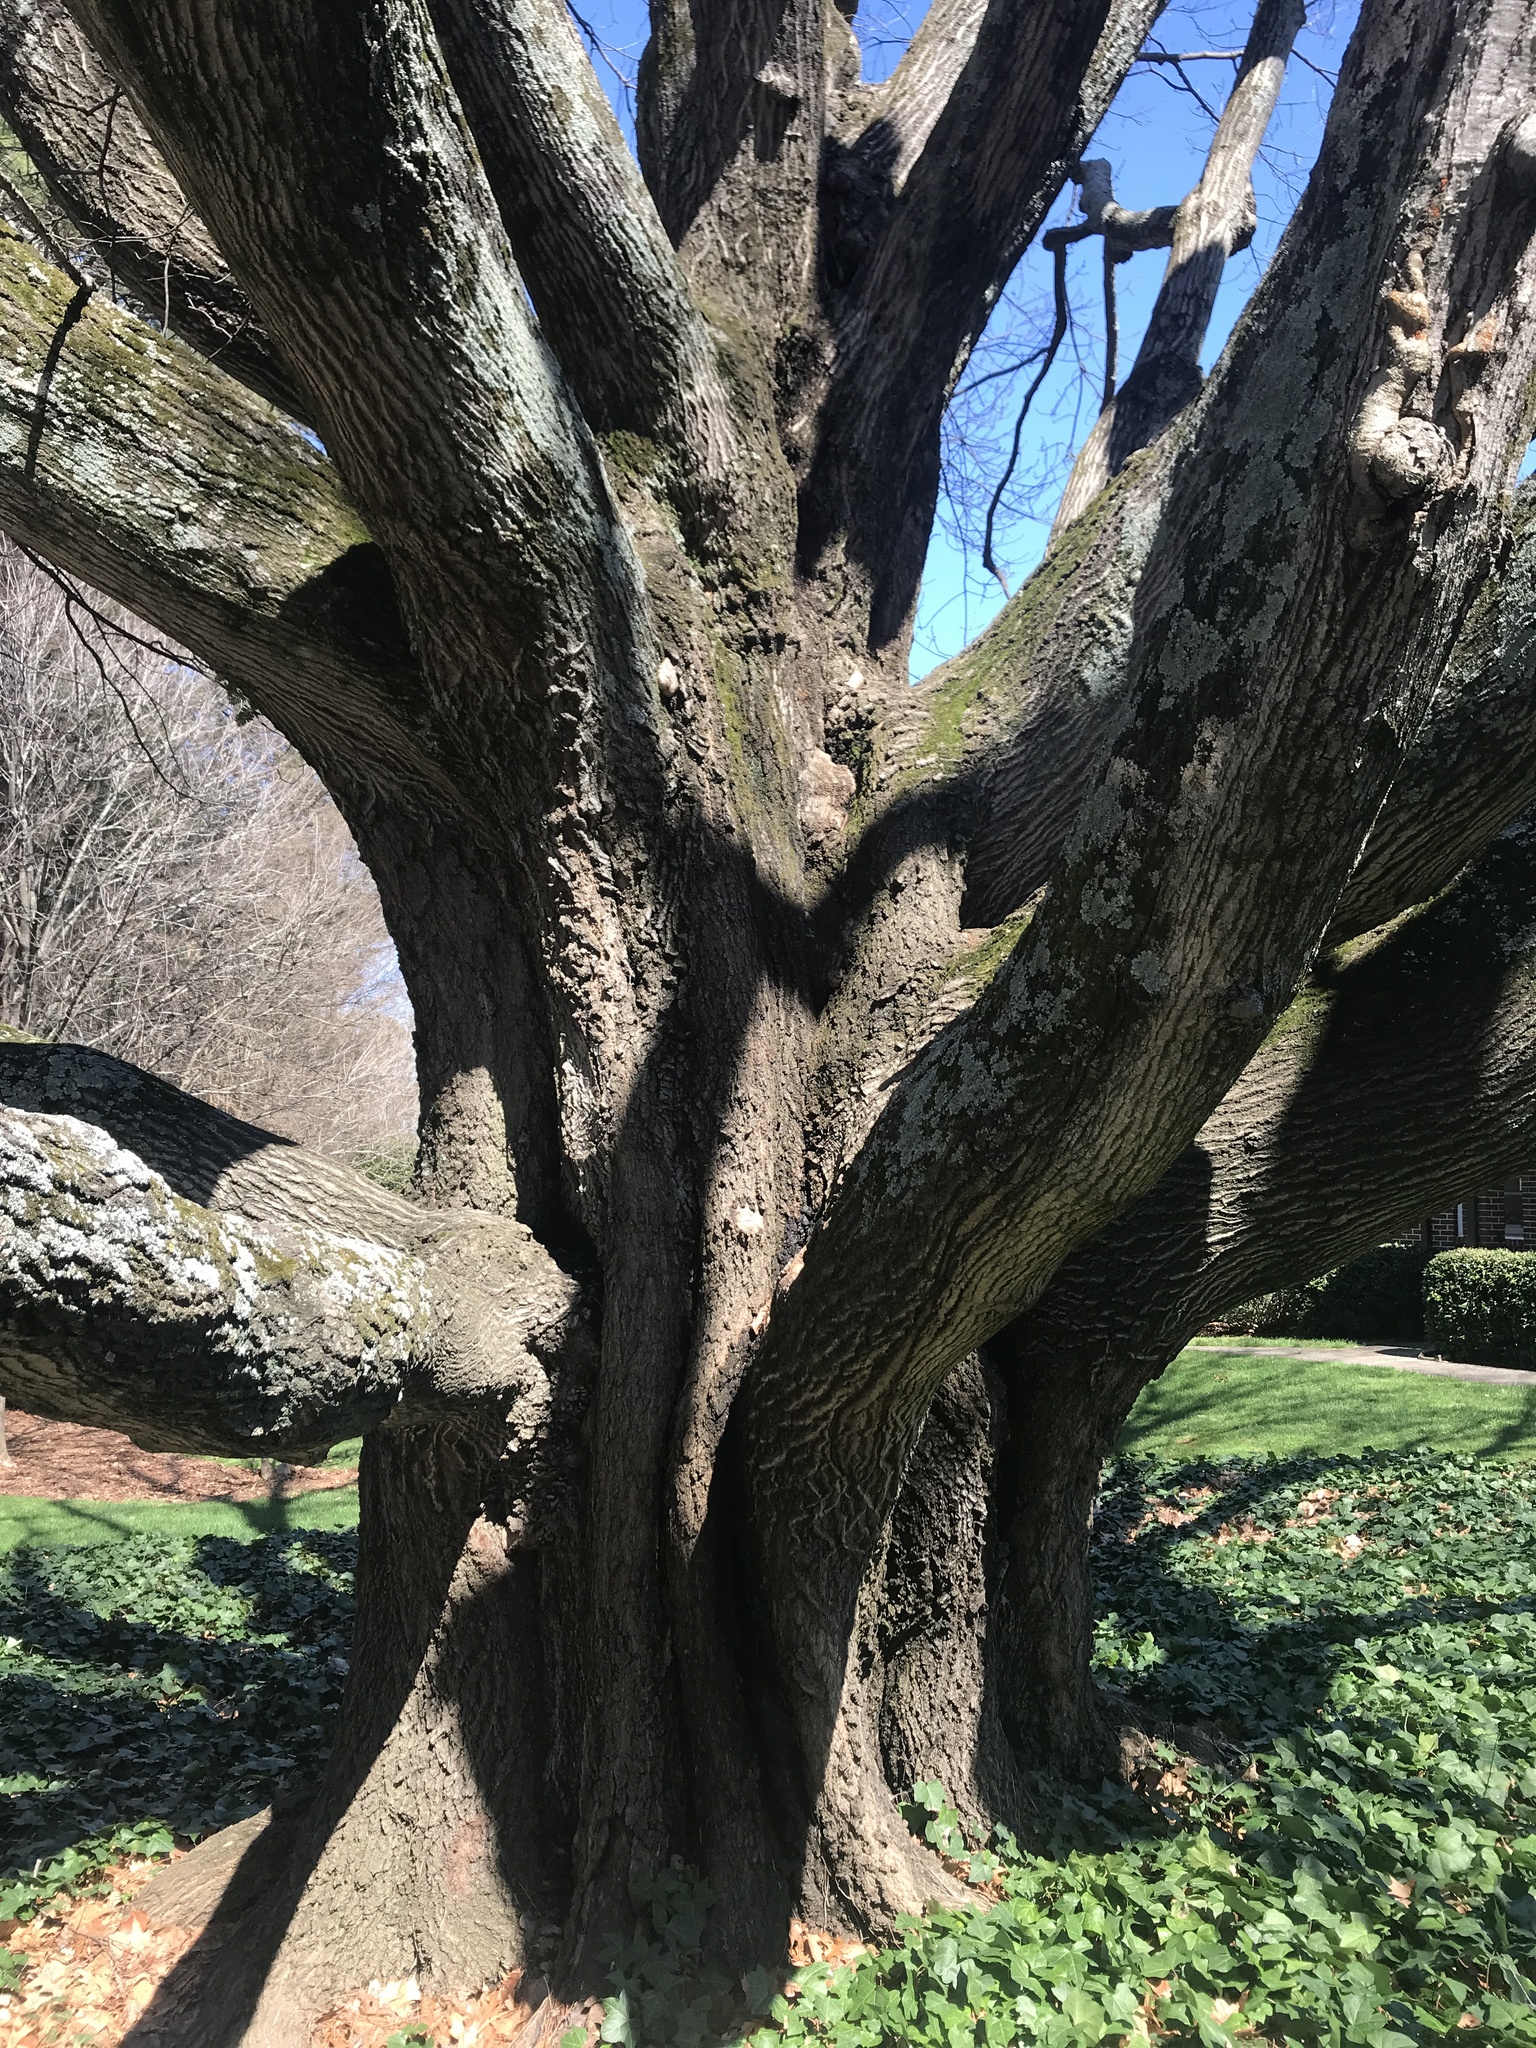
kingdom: Plantae
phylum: Tracheophyta
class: Magnoliopsida
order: Fagales
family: Fagaceae
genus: Quercus
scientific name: Quercus rubra
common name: Red oak
